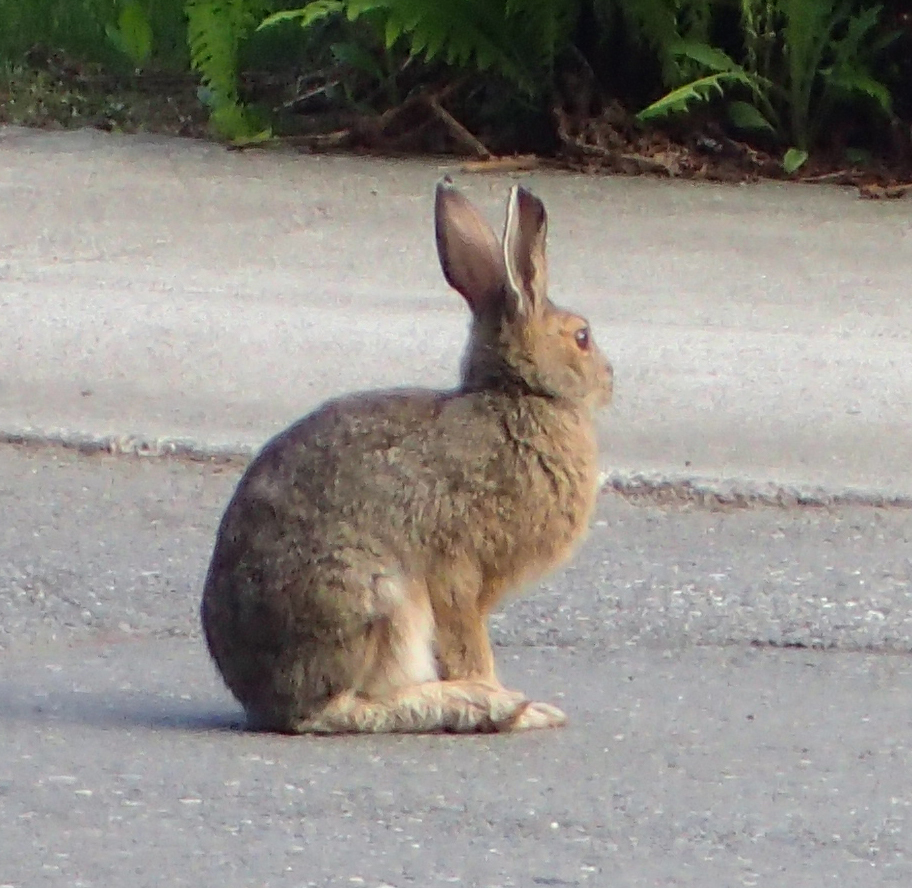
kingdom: Animalia
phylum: Chordata
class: Mammalia
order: Lagomorpha
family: Leporidae
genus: Lepus
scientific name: Lepus americanus
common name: Snowshoe hare
